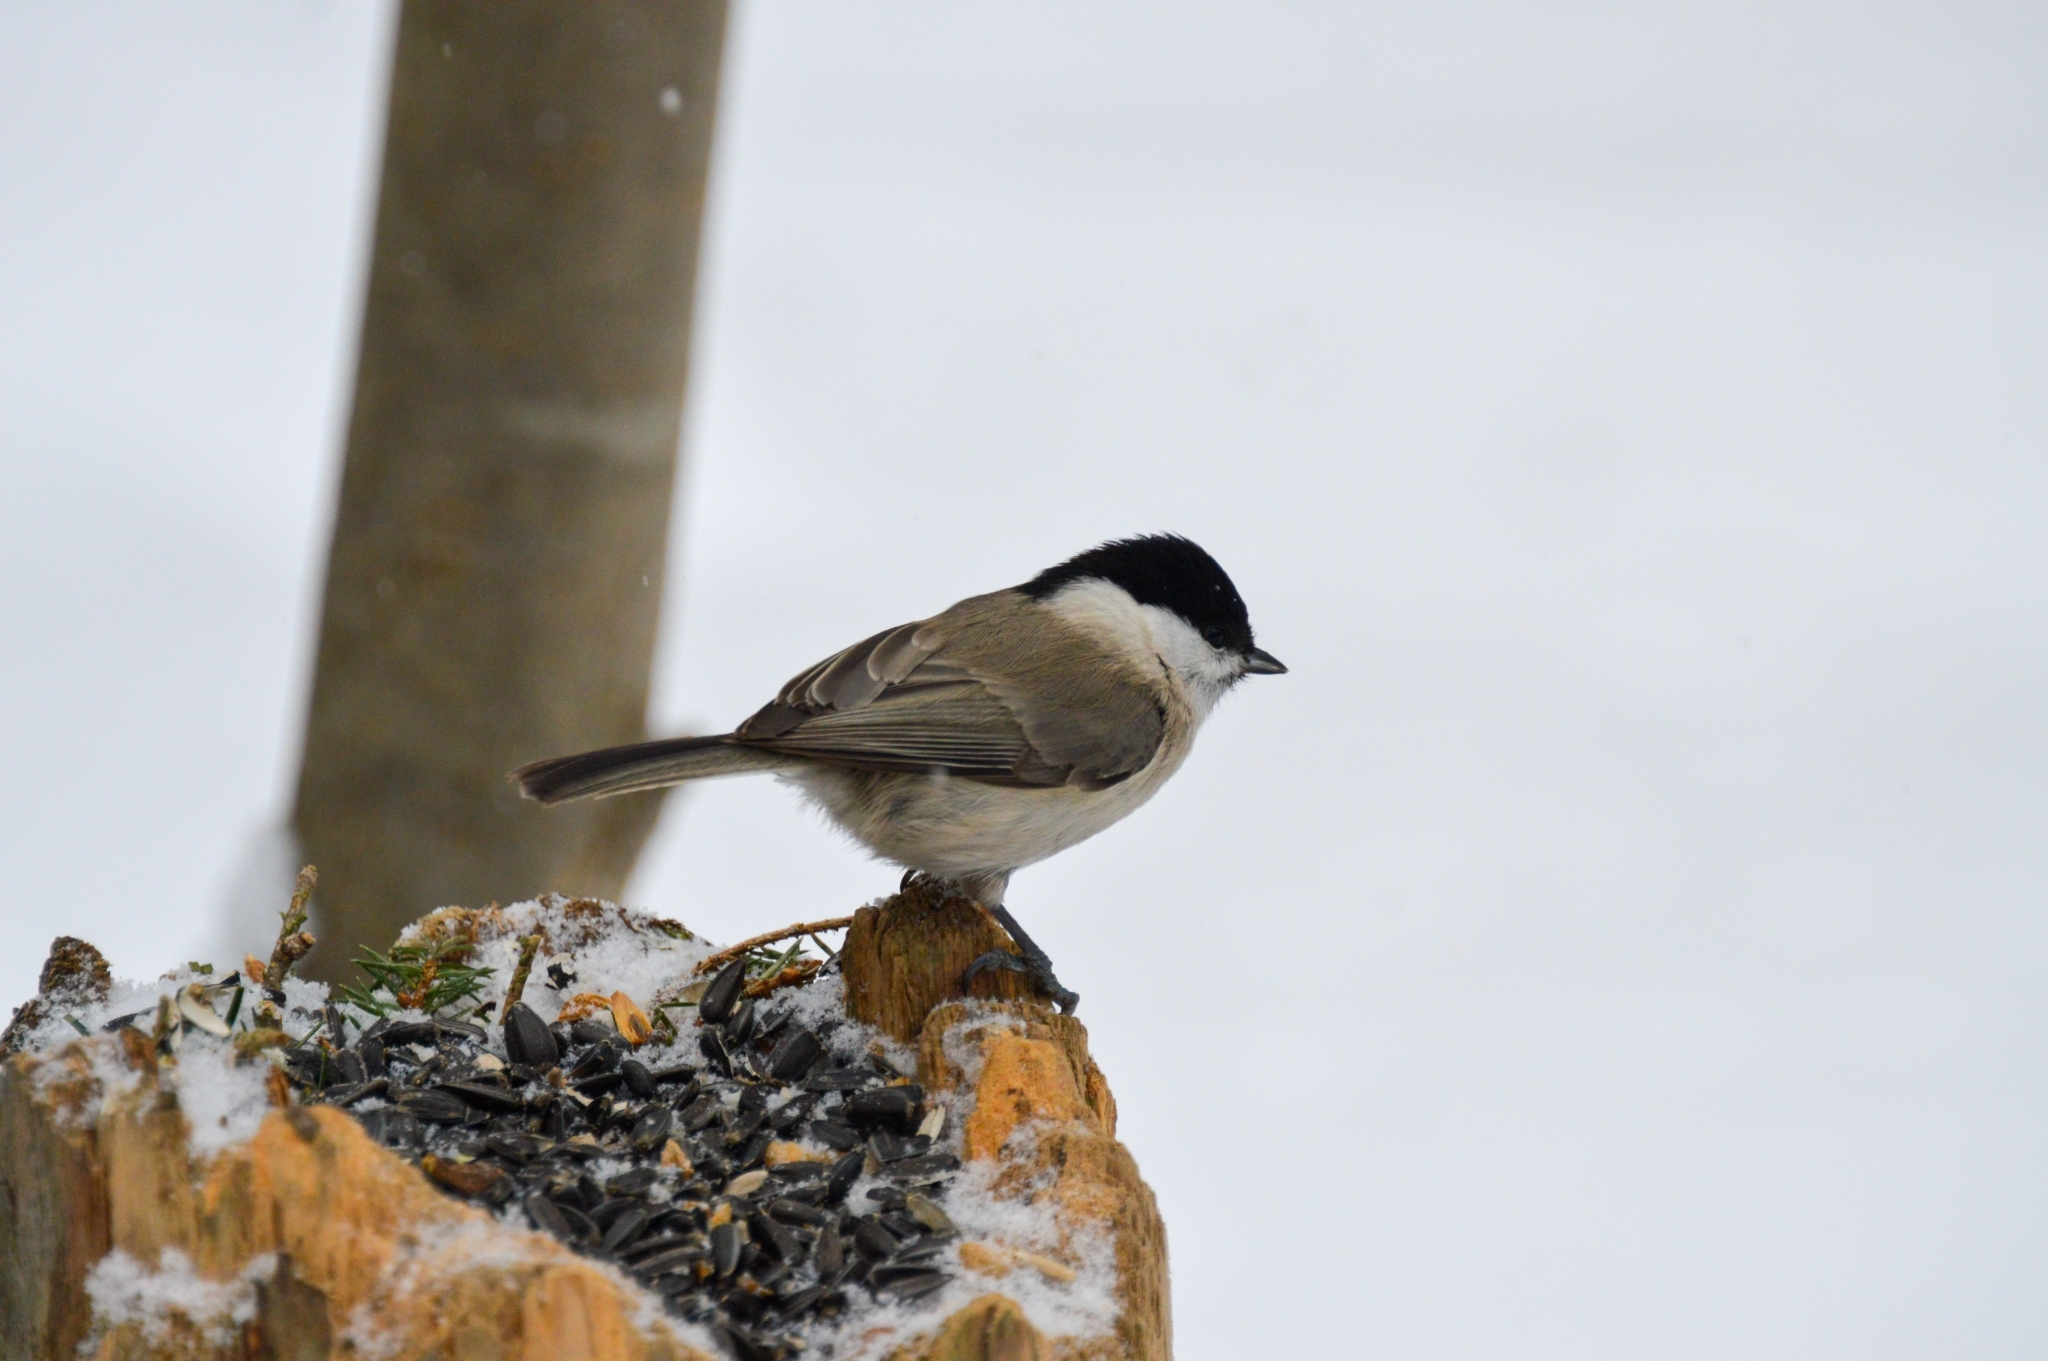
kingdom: Animalia
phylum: Chordata
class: Aves
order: Passeriformes
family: Paridae
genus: Poecile
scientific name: Poecile palustris
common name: Marsh tit
